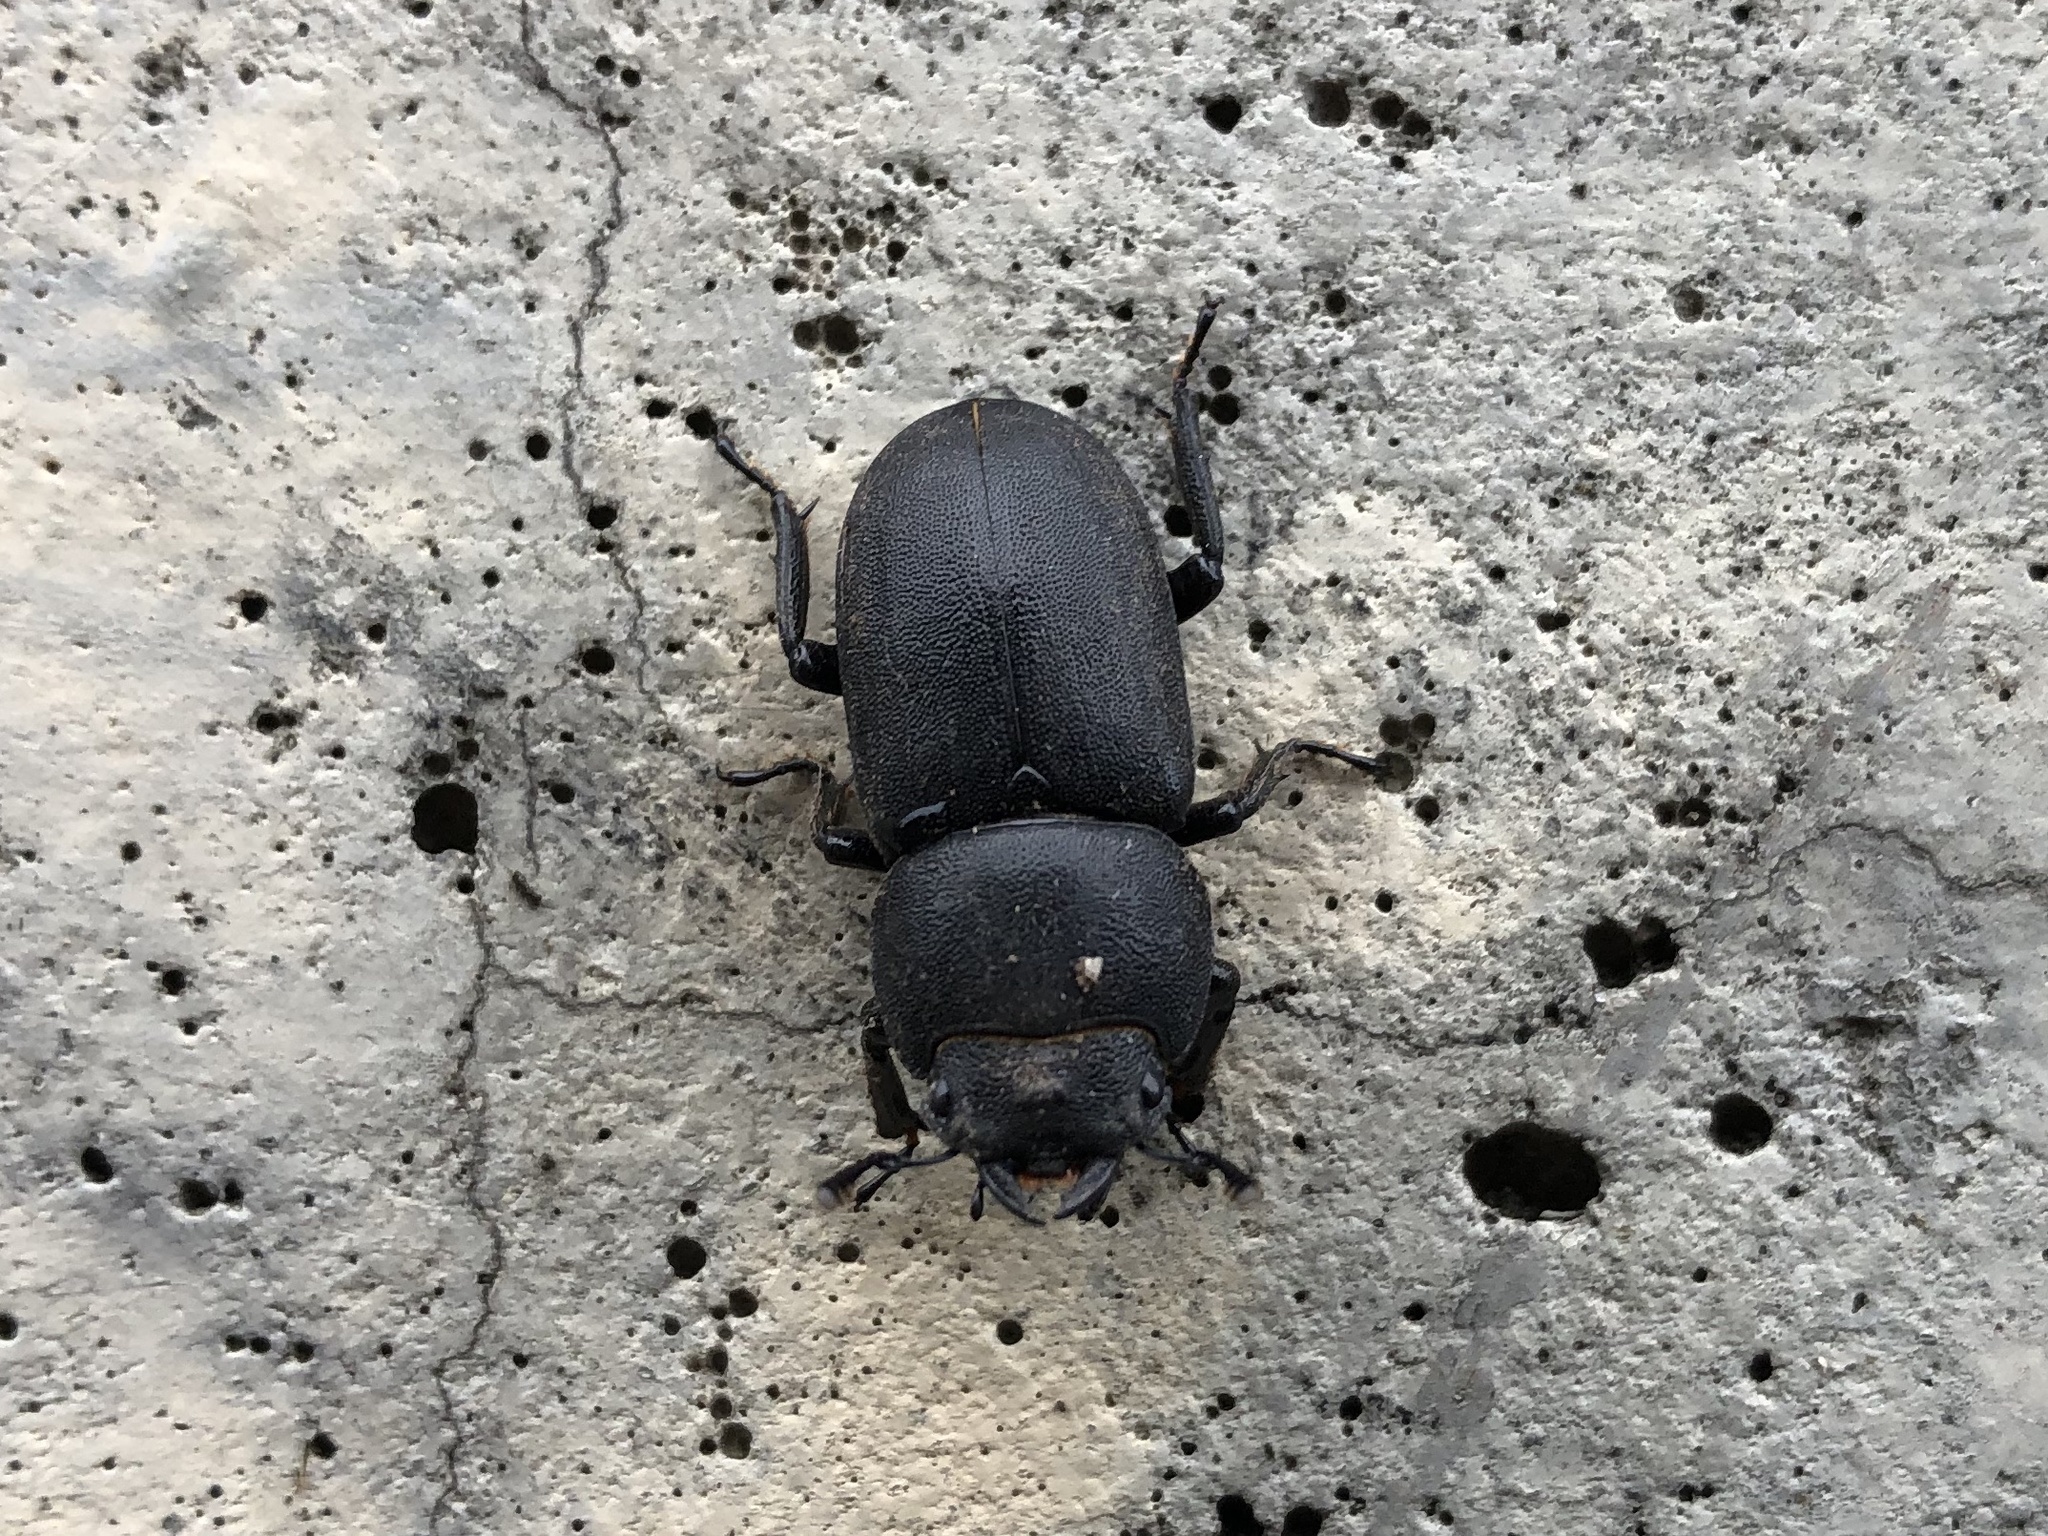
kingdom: Animalia
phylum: Arthropoda
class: Insecta
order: Coleoptera
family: Lucanidae
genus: Dorcus
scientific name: Dorcus parallelipipedus
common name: Lesser stag beetle
